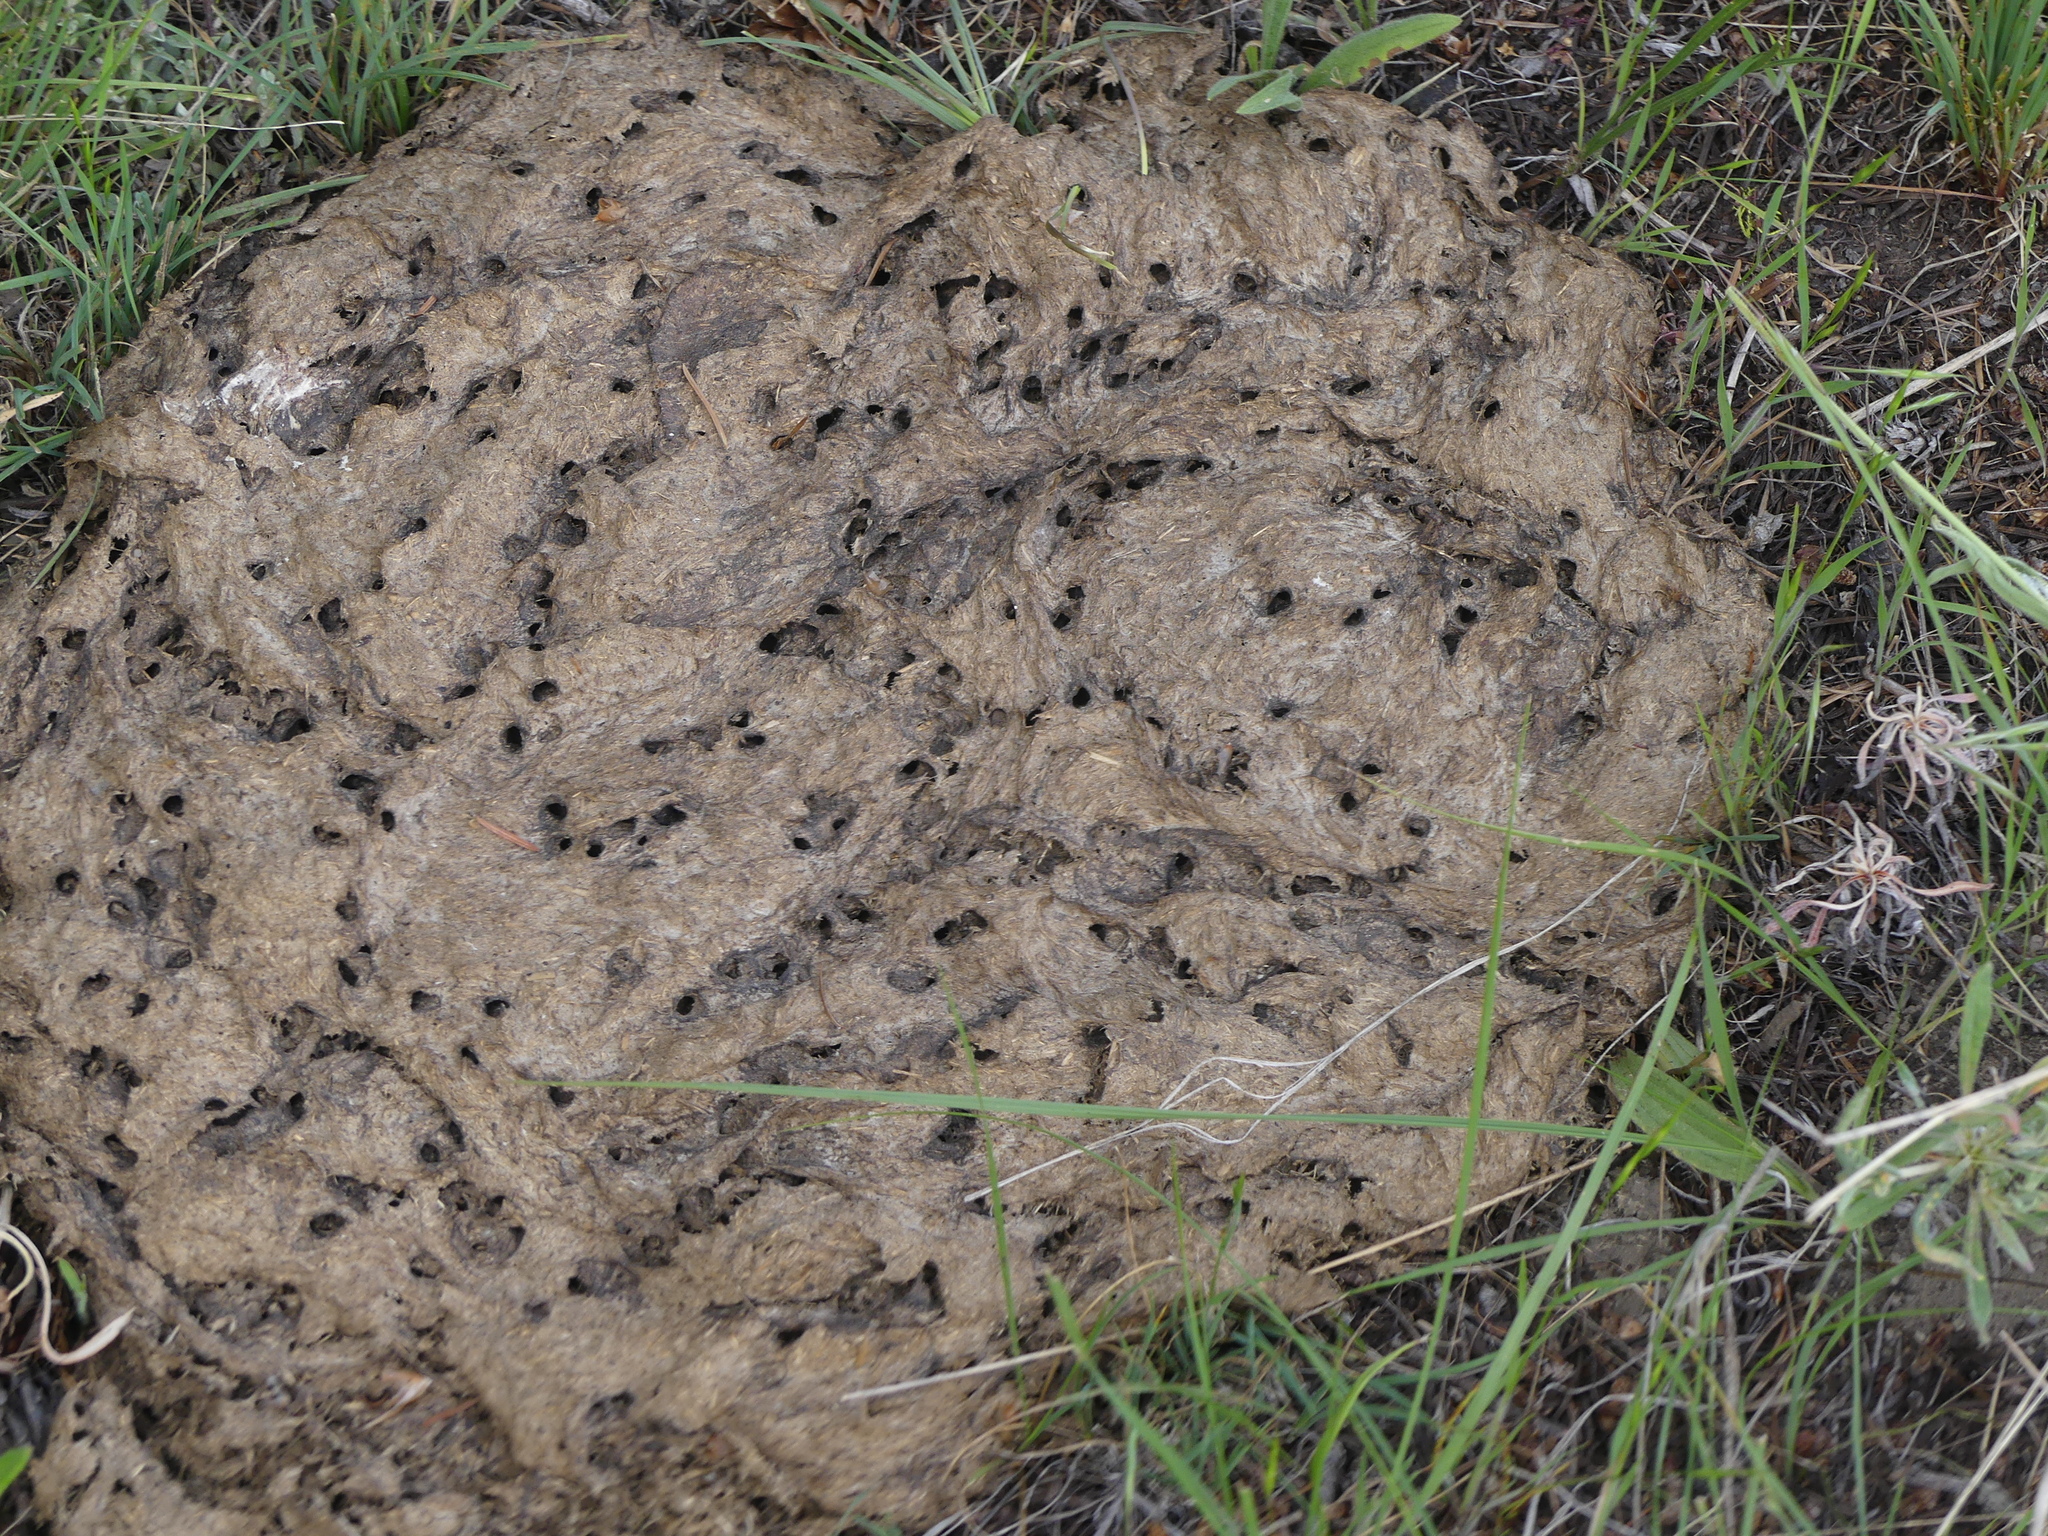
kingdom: Animalia
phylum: Chordata
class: Mammalia
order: Artiodactyla
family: Bovidae
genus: Bos
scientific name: Bos taurus
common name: Domesticated cattle
